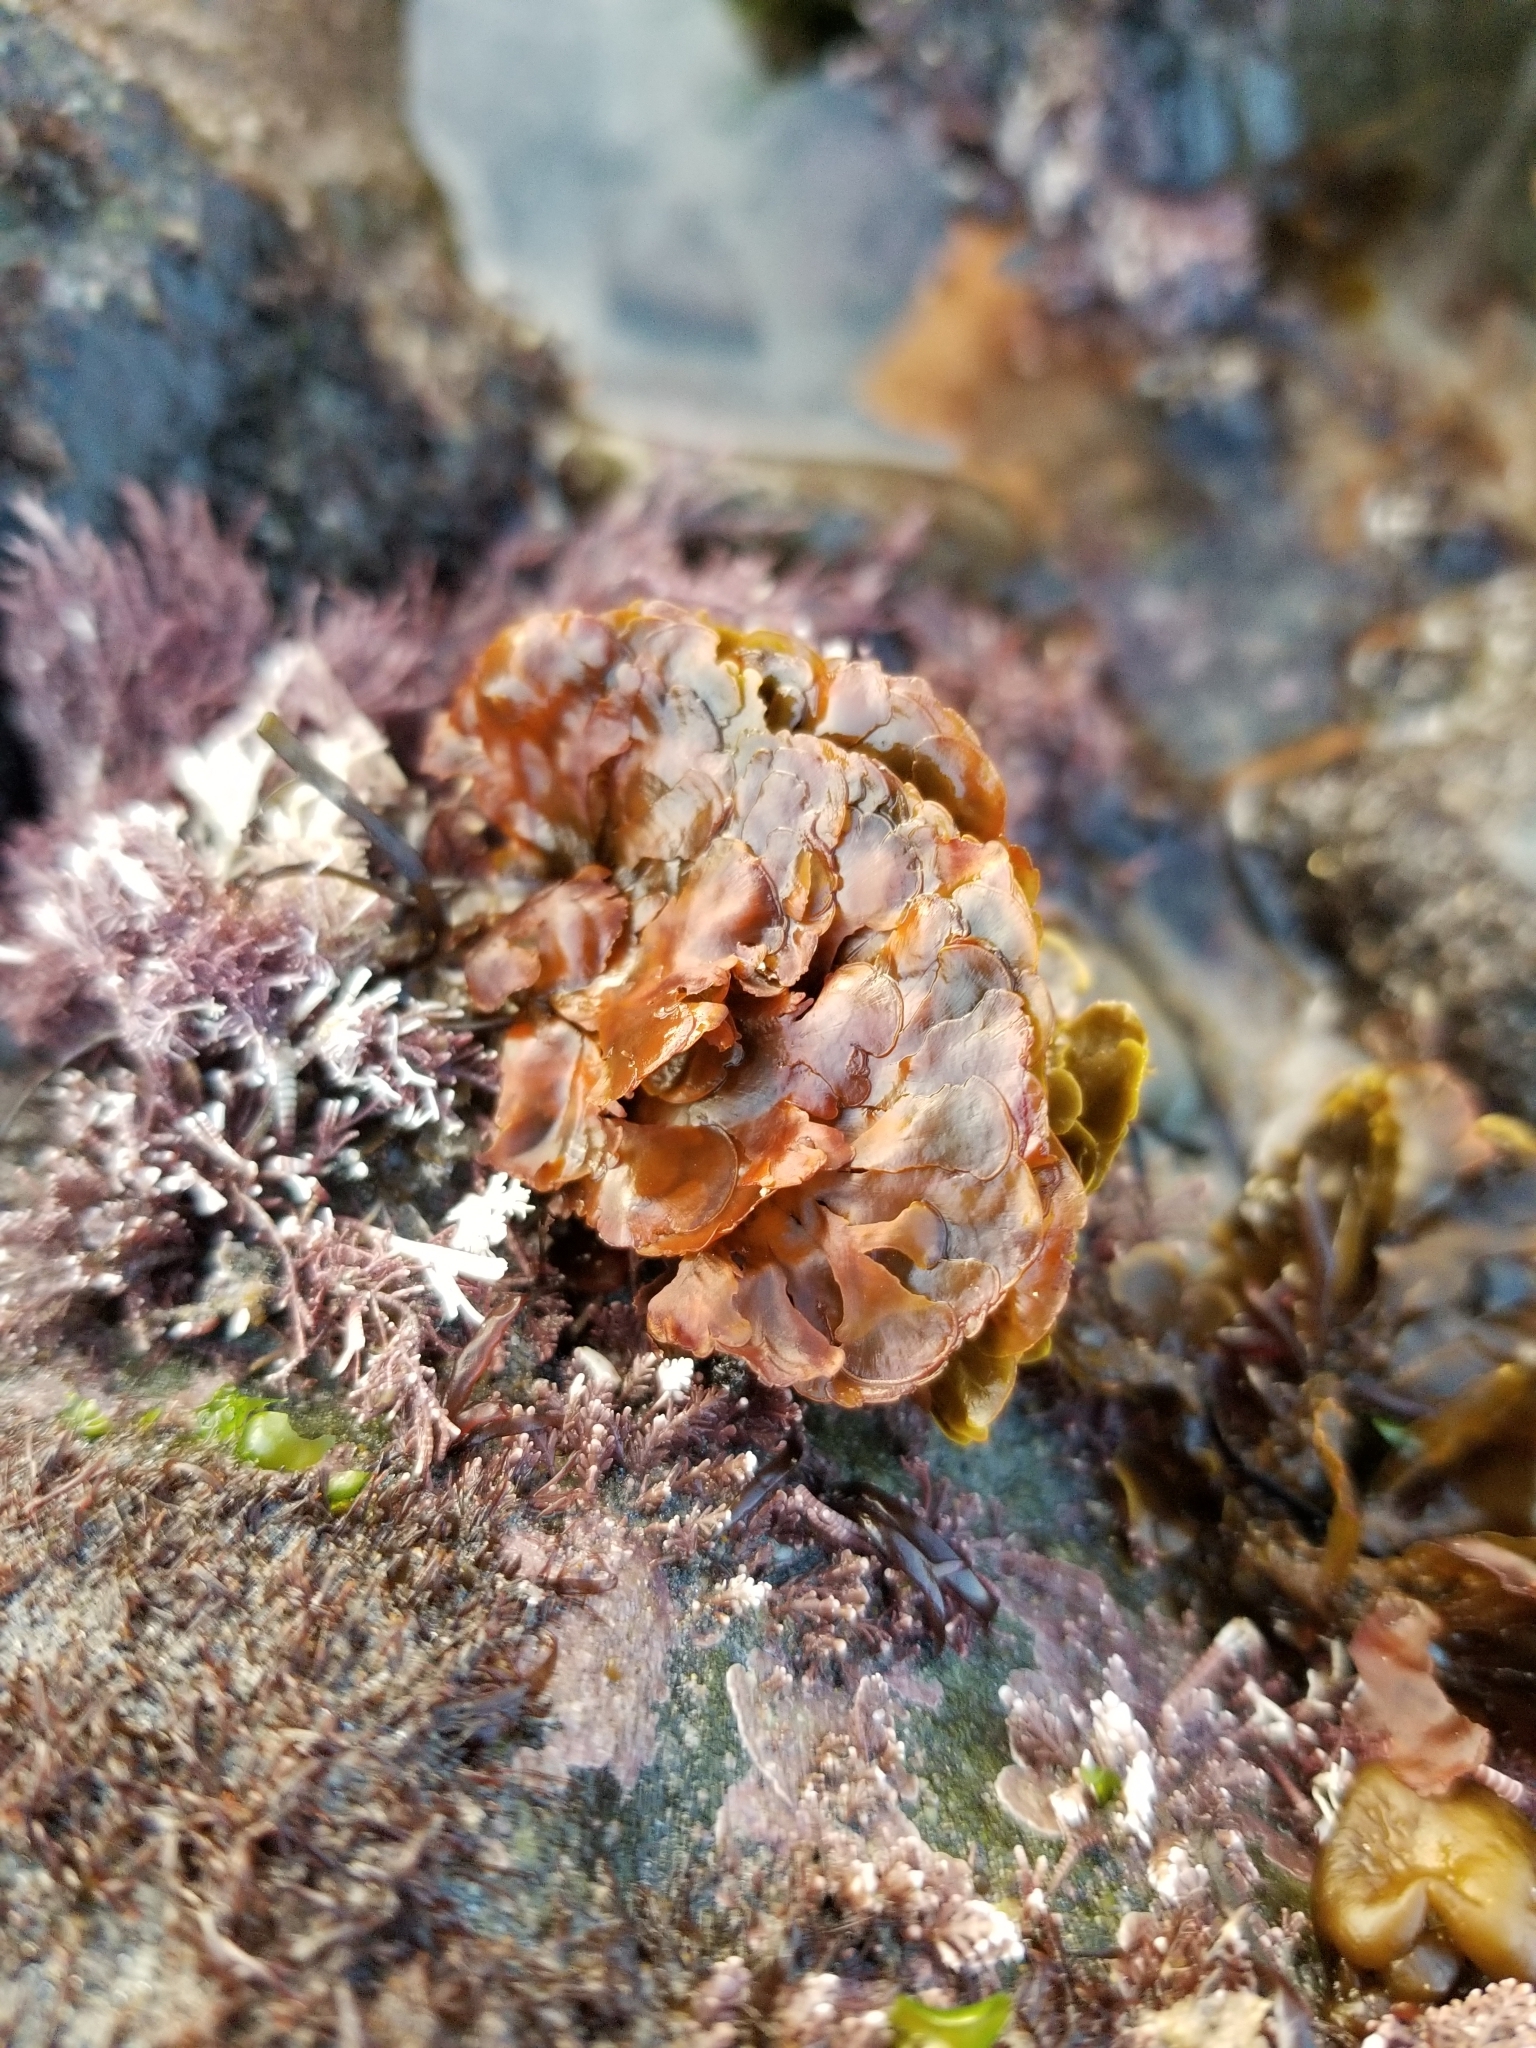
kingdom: Chromista
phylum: Ochrophyta
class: Phaeophyceae
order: Dictyotales
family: Dictyotaceae
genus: Zonaria
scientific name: Zonaria farlowii
